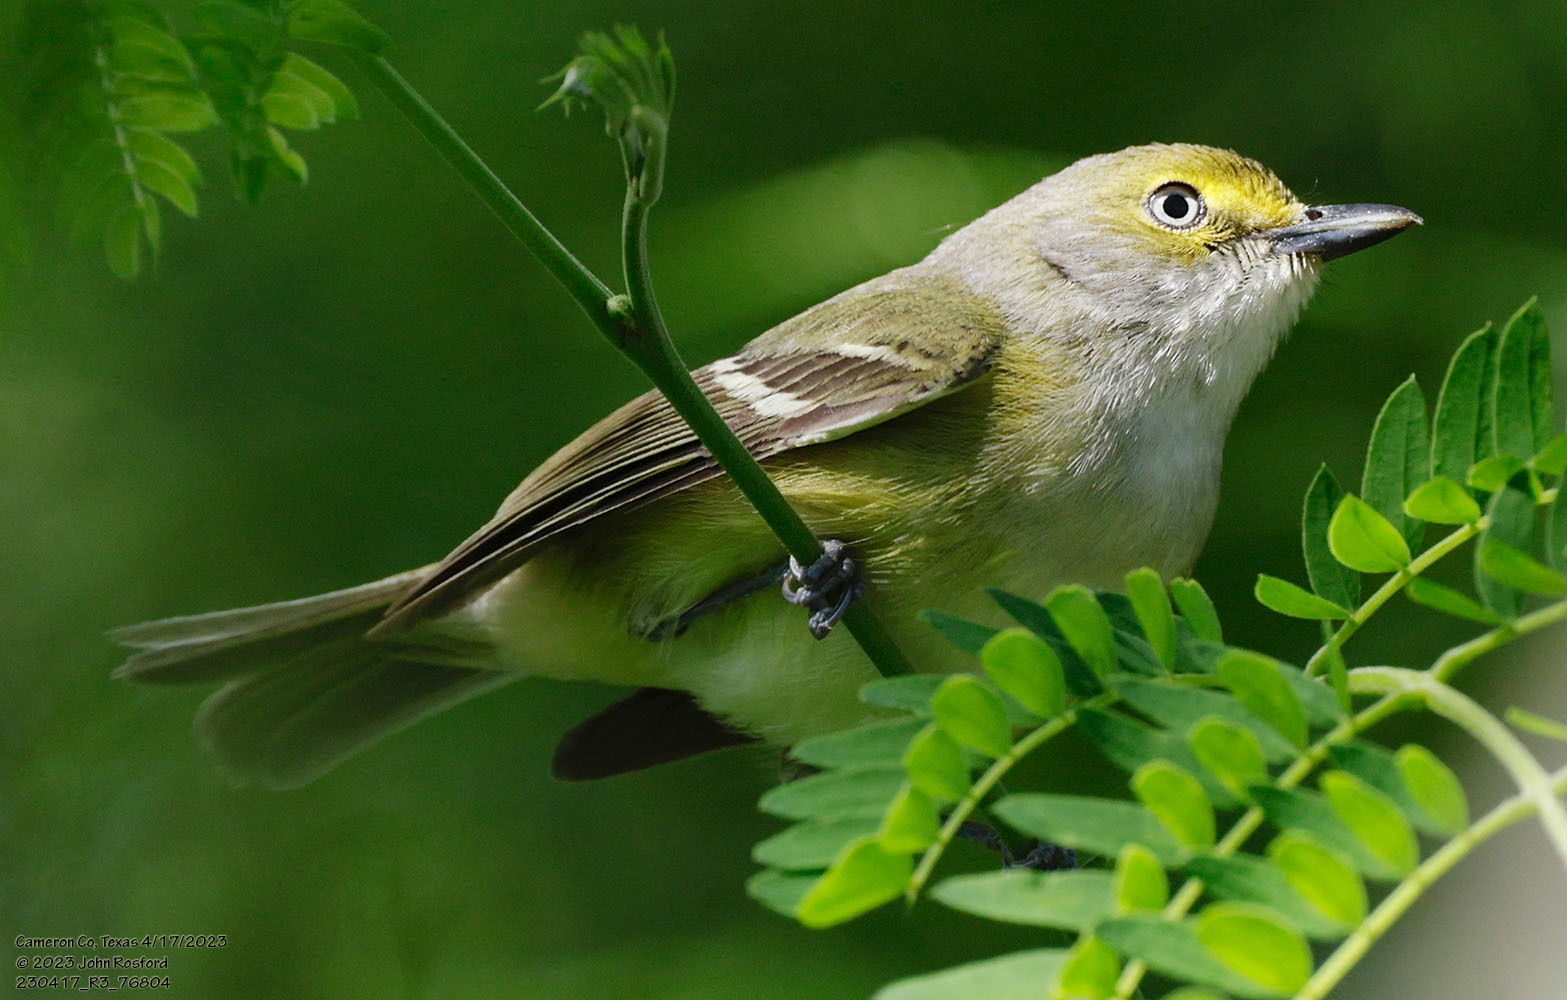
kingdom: Animalia
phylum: Chordata
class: Aves
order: Passeriformes
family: Vireonidae
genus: Vireo
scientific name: Vireo griseus
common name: White-eyed vireo
